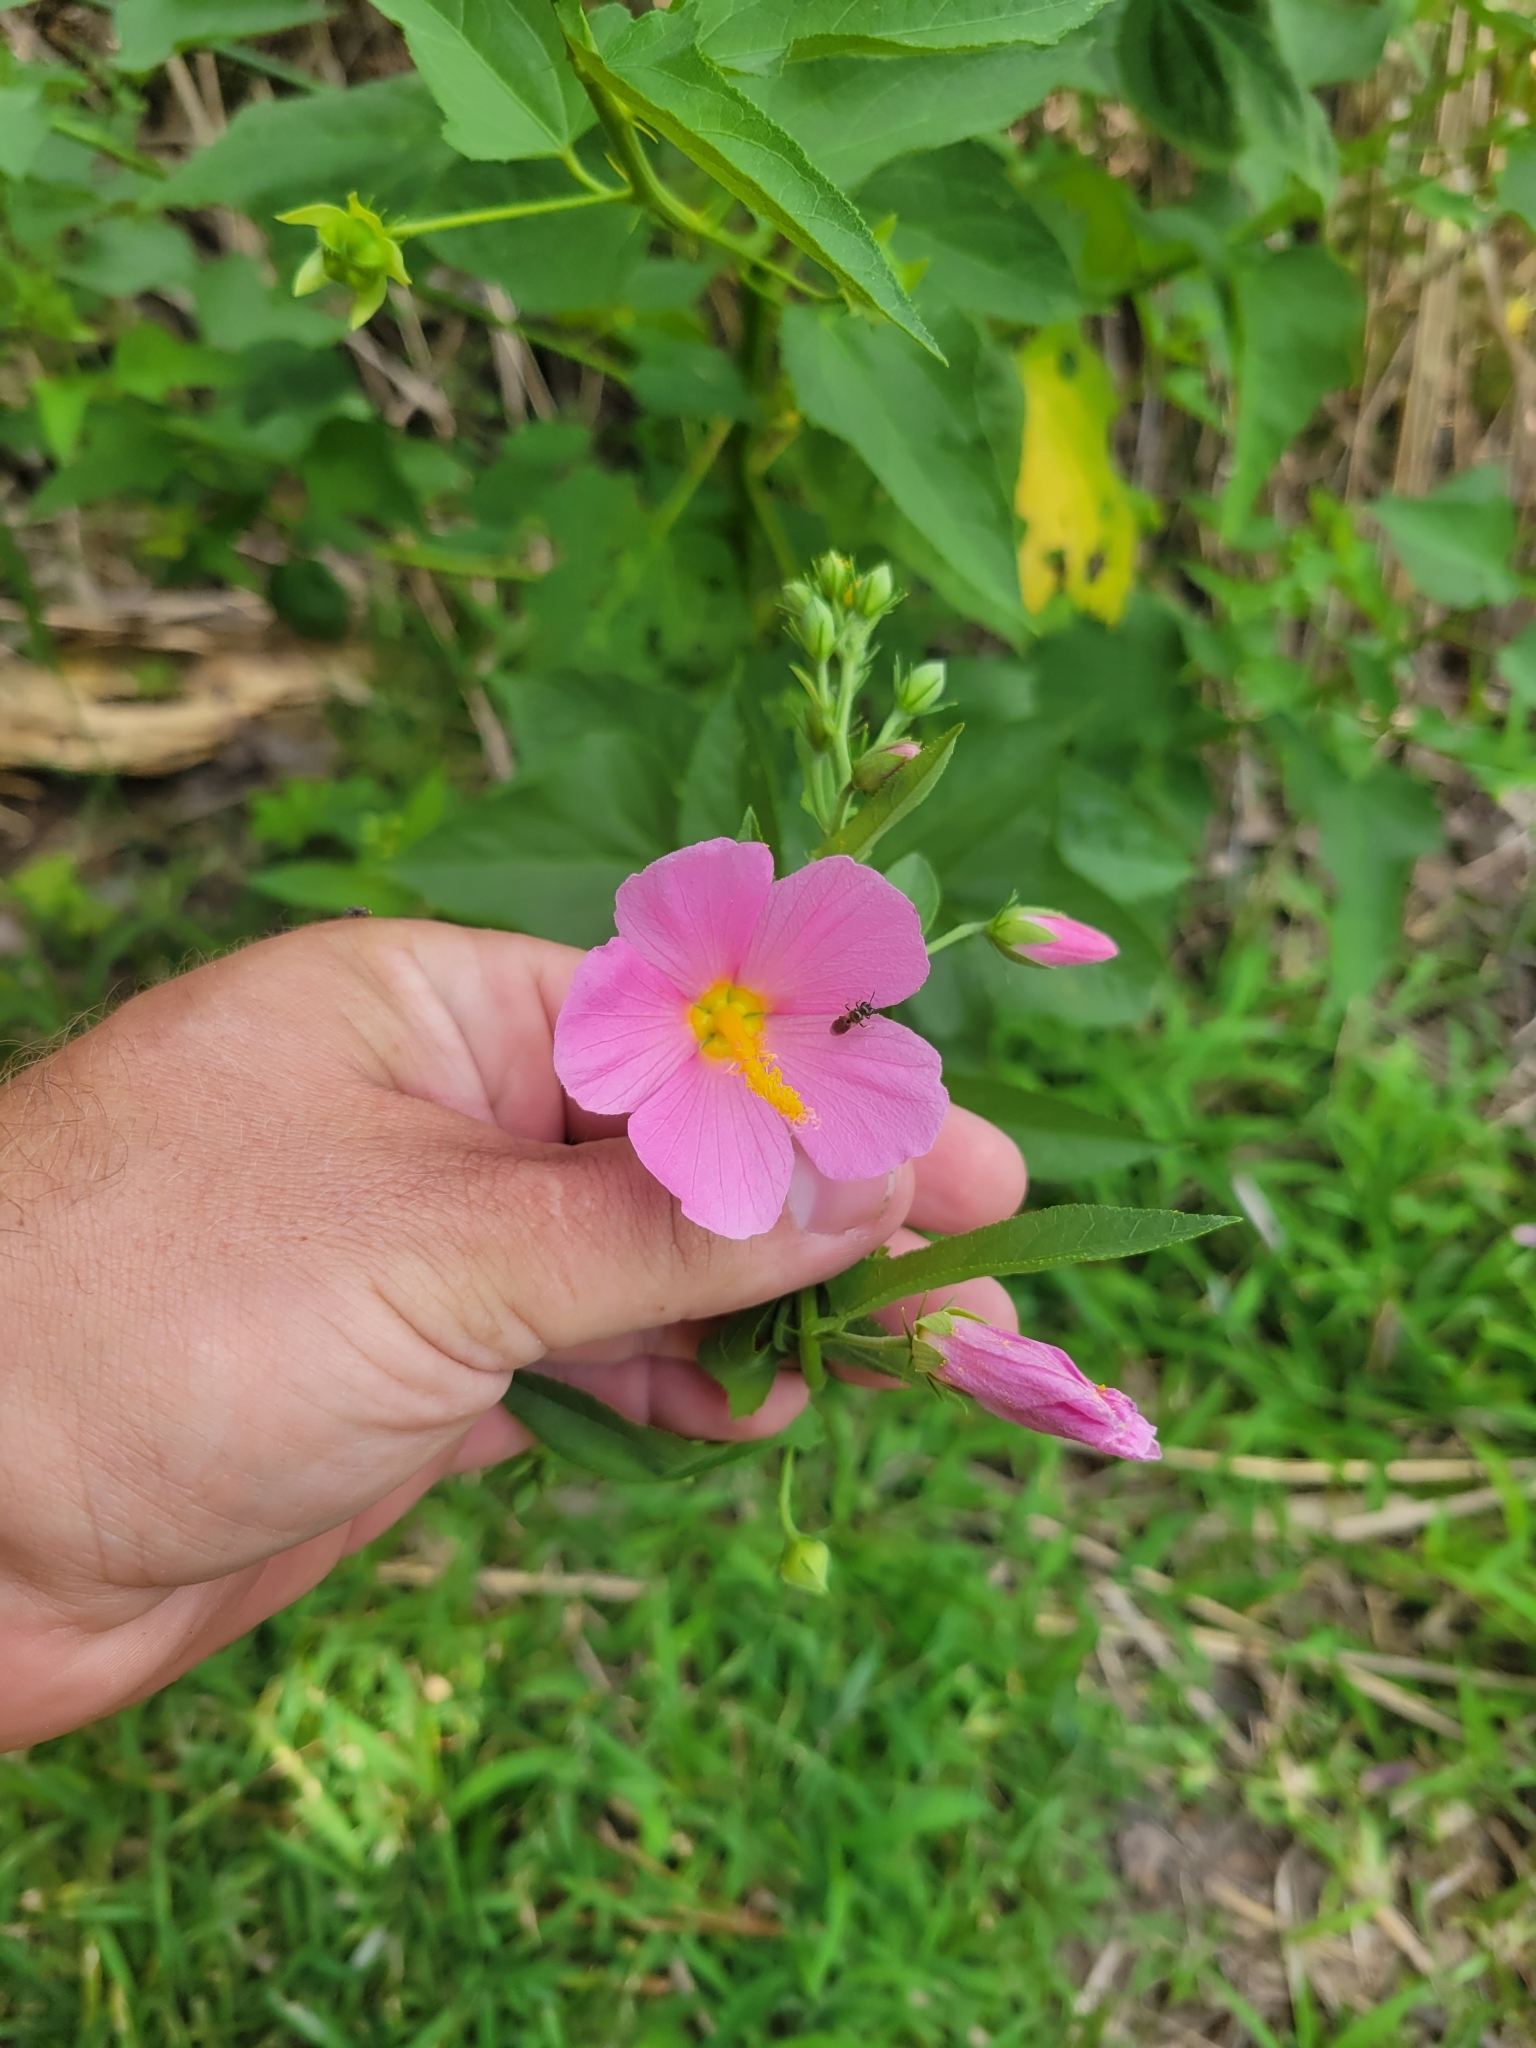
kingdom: Plantae
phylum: Tracheophyta
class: Magnoliopsida
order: Malvales
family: Malvaceae
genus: Kosteletzkya
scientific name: Kosteletzkya pentacarpos
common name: Virginia saltmarsh mallow
